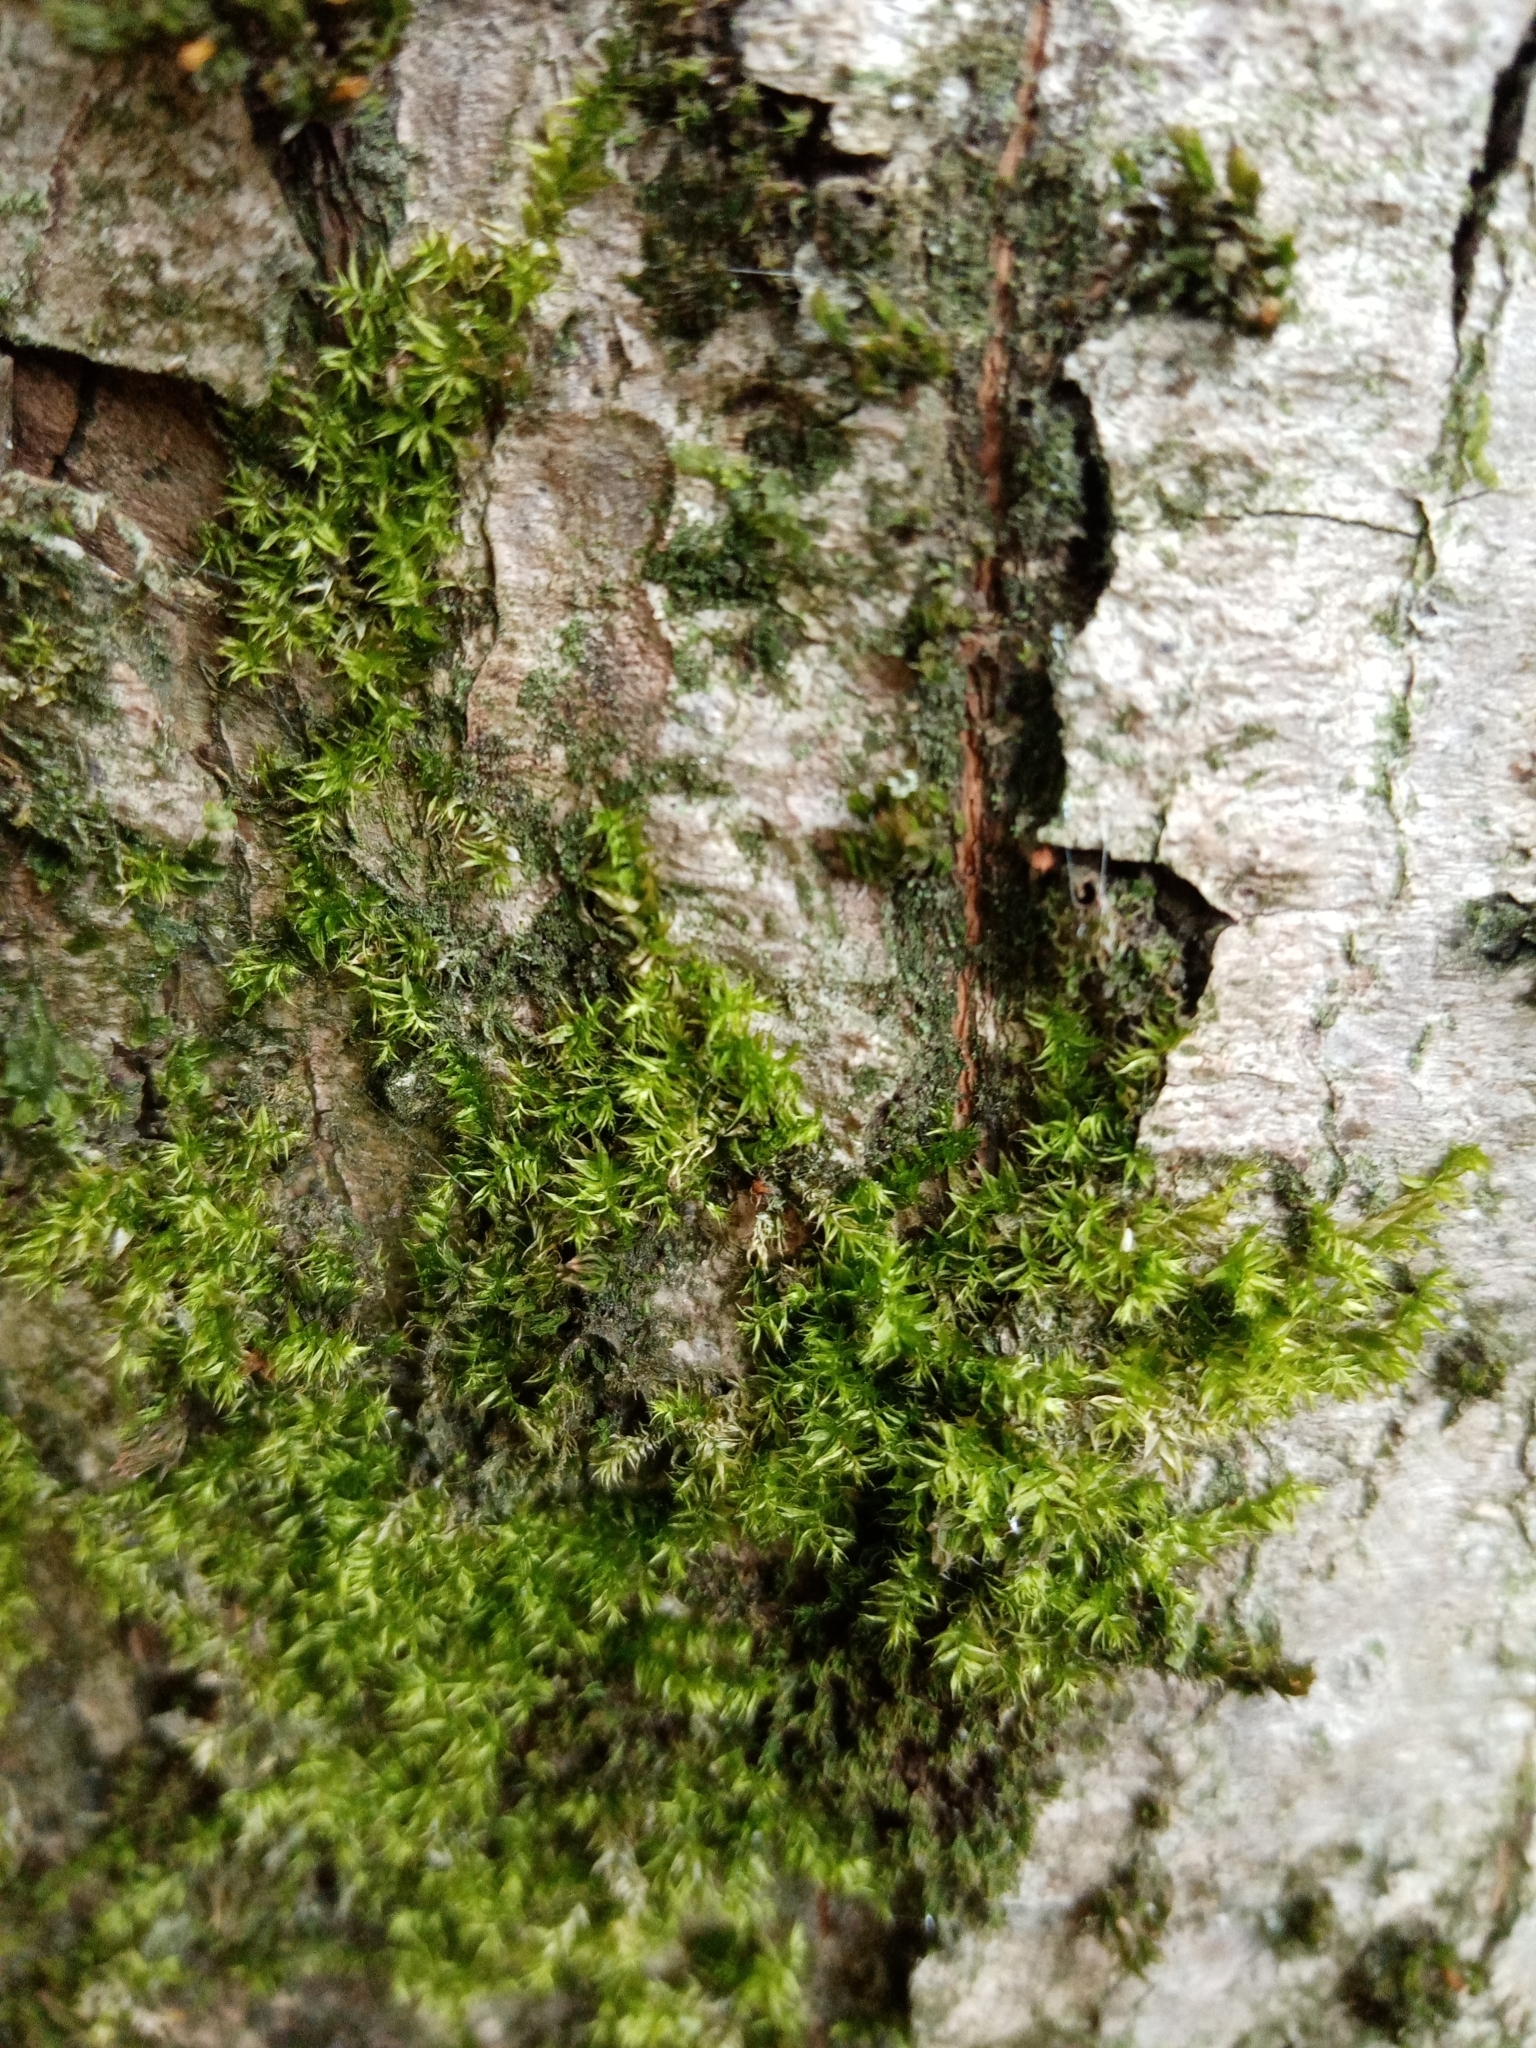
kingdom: Plantae
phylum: Bryophyta
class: Bryopsida
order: Dicranales
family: Rhabdoweisiaceae
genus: Dicranoweisia
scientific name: Dicranoweisia cirrata
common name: Common pincushion
